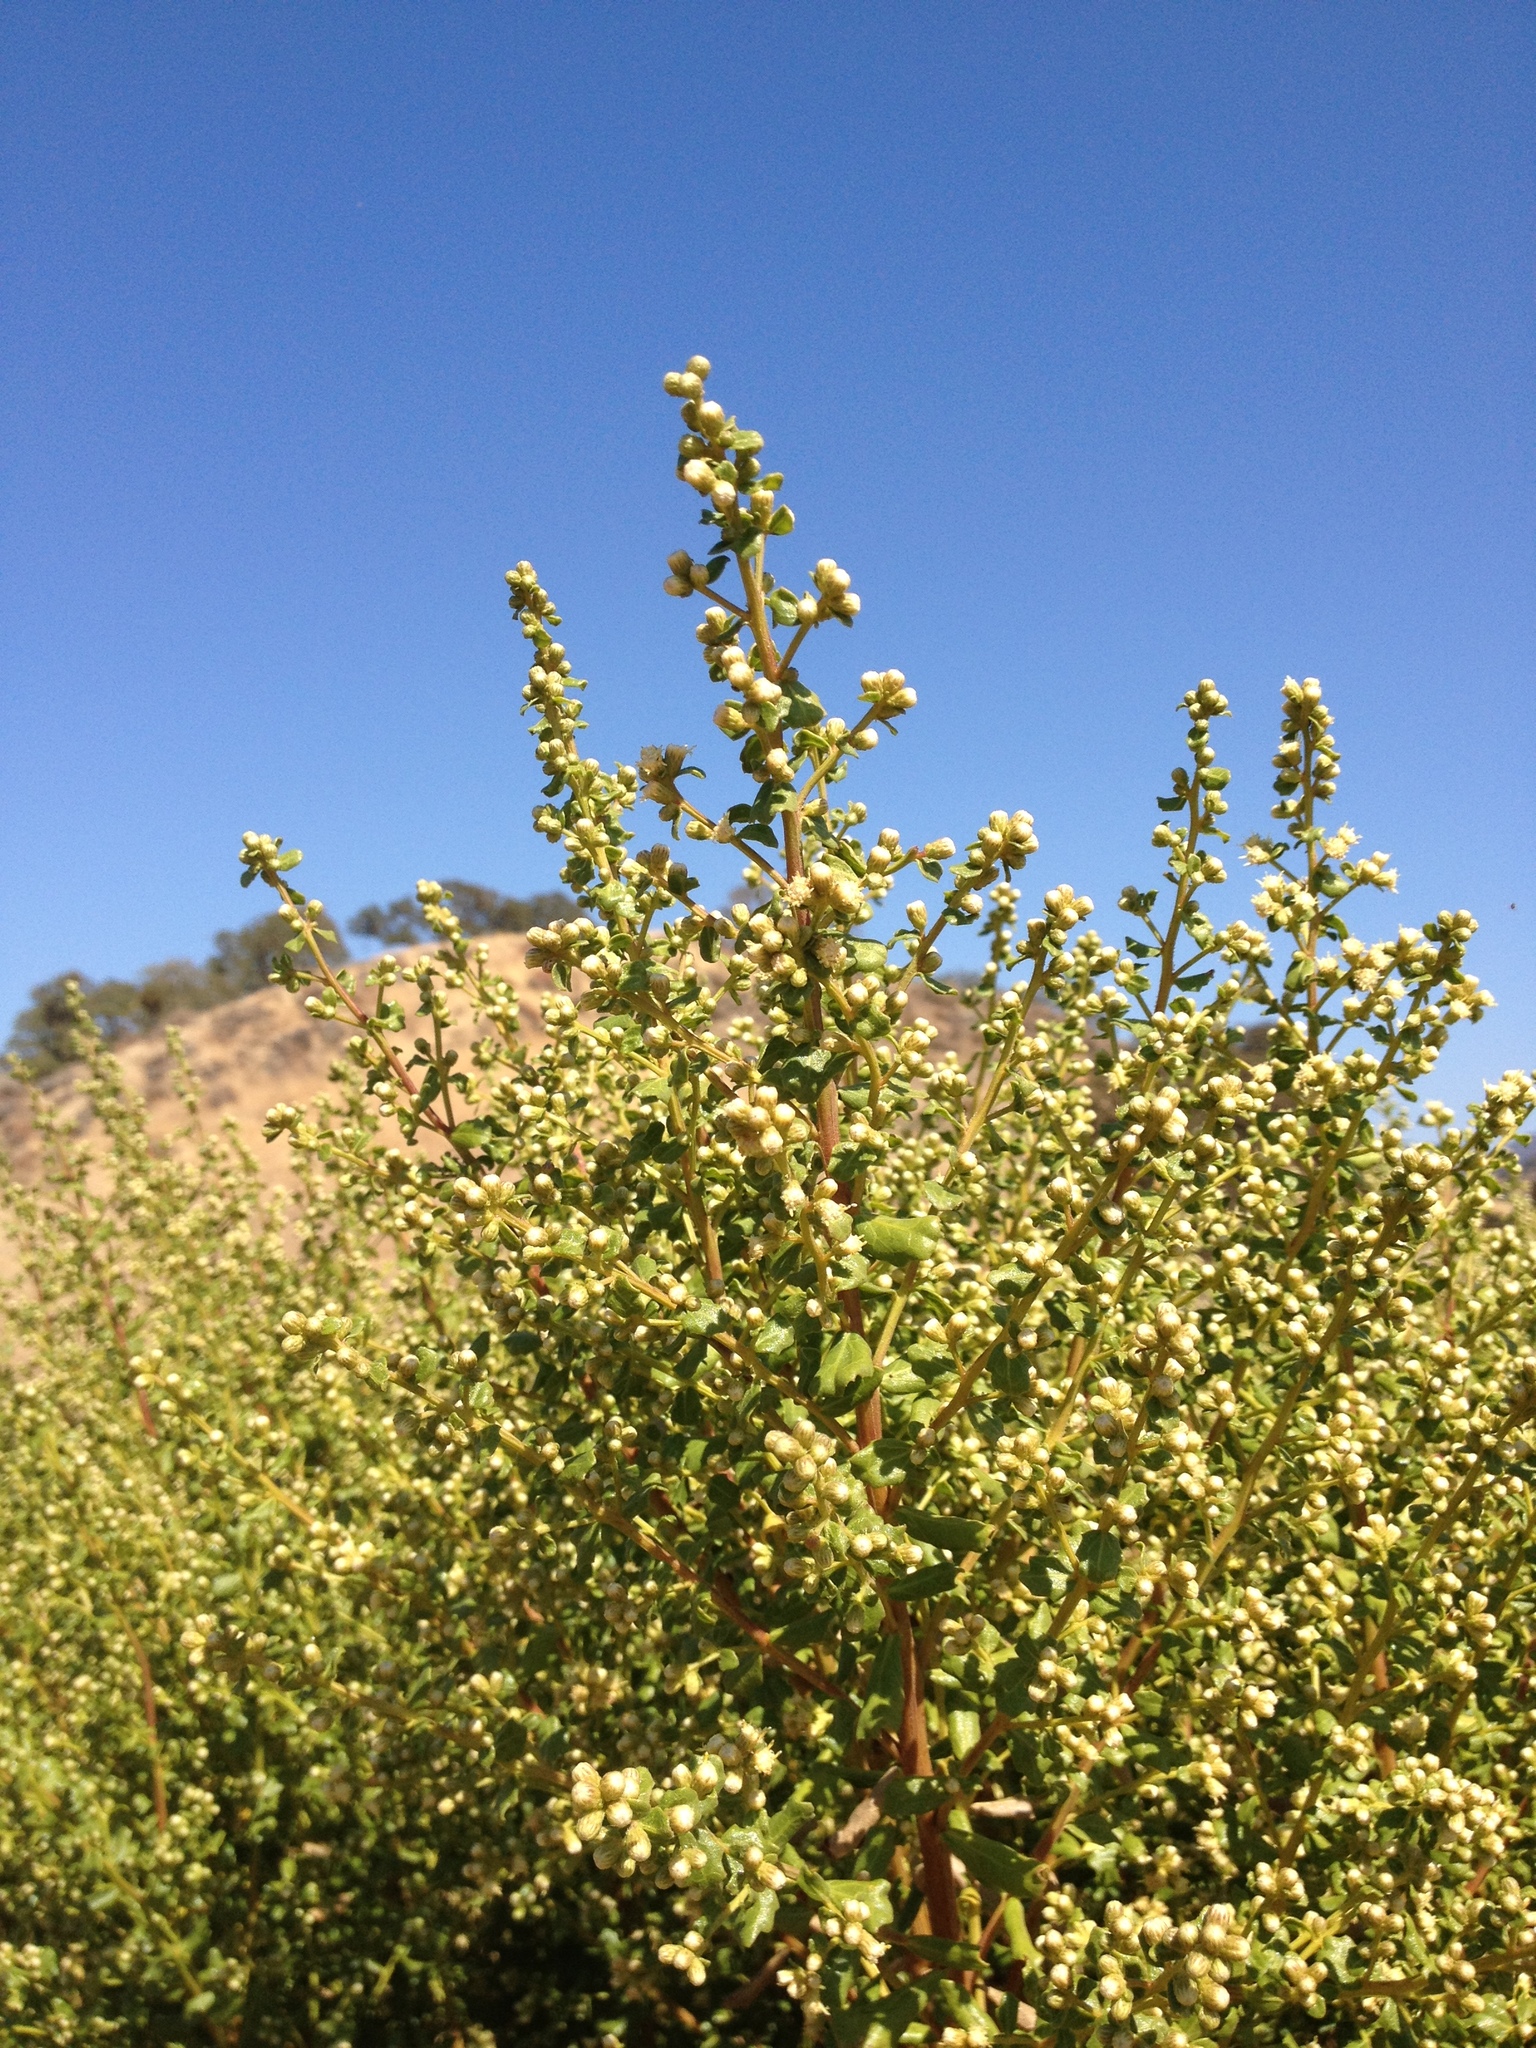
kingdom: Plantae
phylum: Tracheophyta
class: Magnoliopsida
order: Asterales
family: Asteraceae
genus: Baccharis
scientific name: Baccharis pilularis
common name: Coyotebrush
